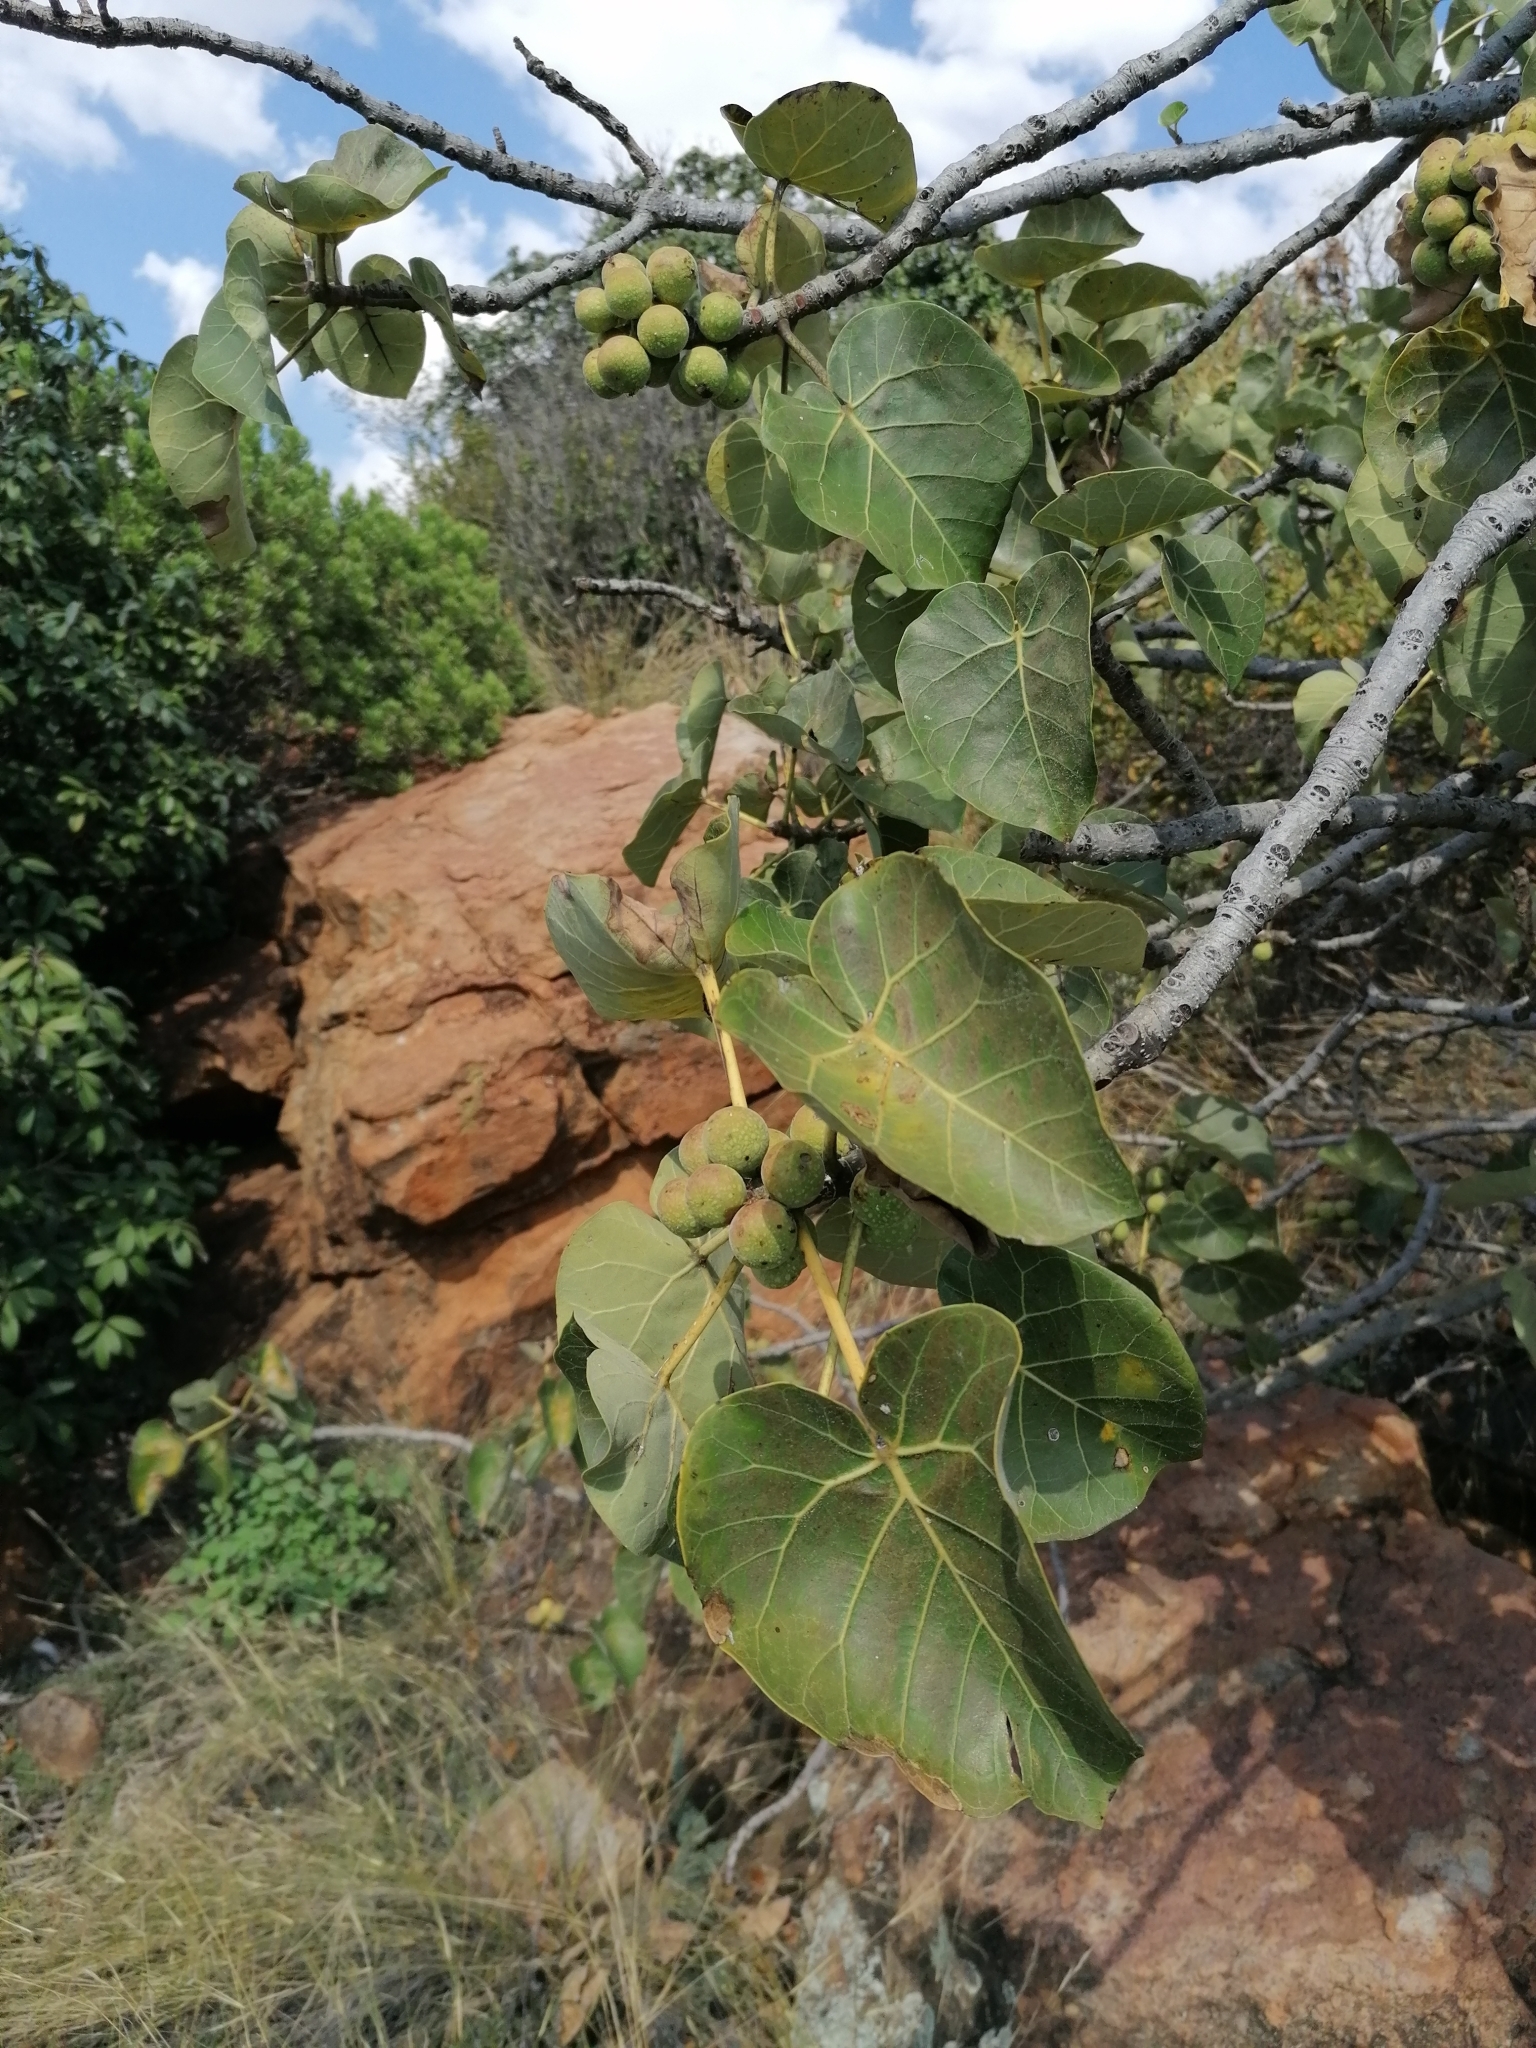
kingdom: Plantae
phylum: Tracheophyta
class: Magnoliopsida
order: Rosales
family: Moraceae
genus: Ficus
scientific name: Ficus abutilifolia
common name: Large-leaved rock fig
